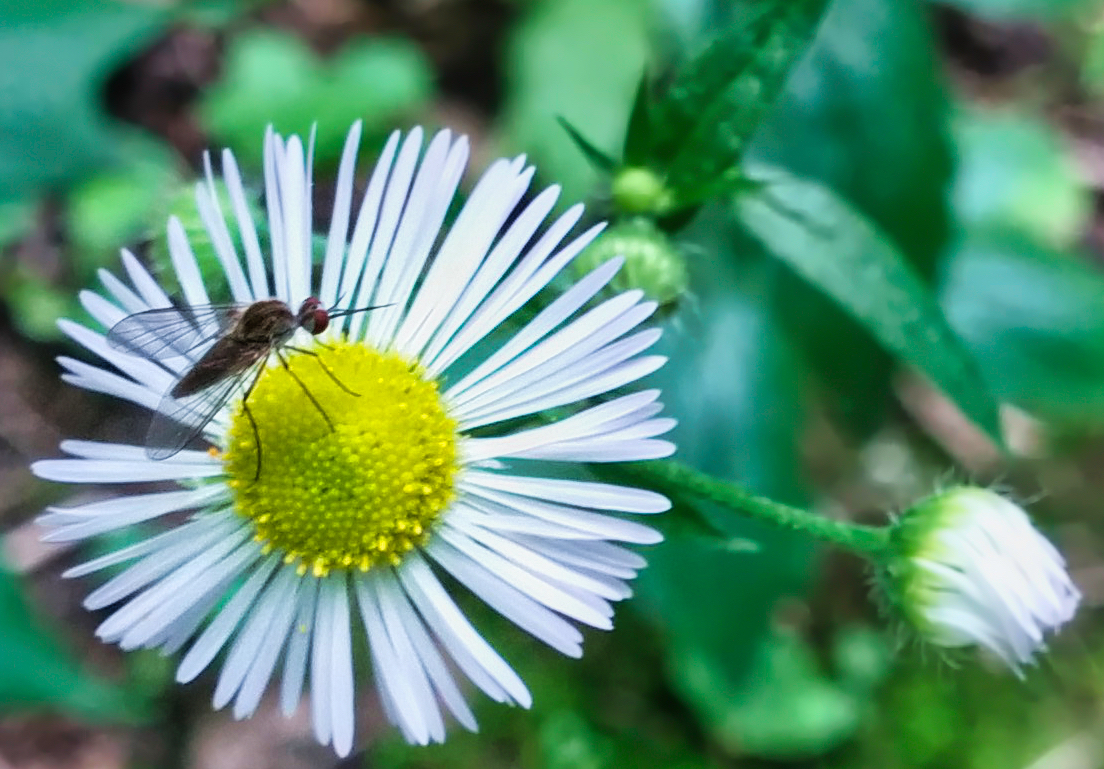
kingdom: Animalia
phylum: Arthropoda
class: Insecta
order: Diptera
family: Bombyliidae
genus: Geron
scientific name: Geron calvus
